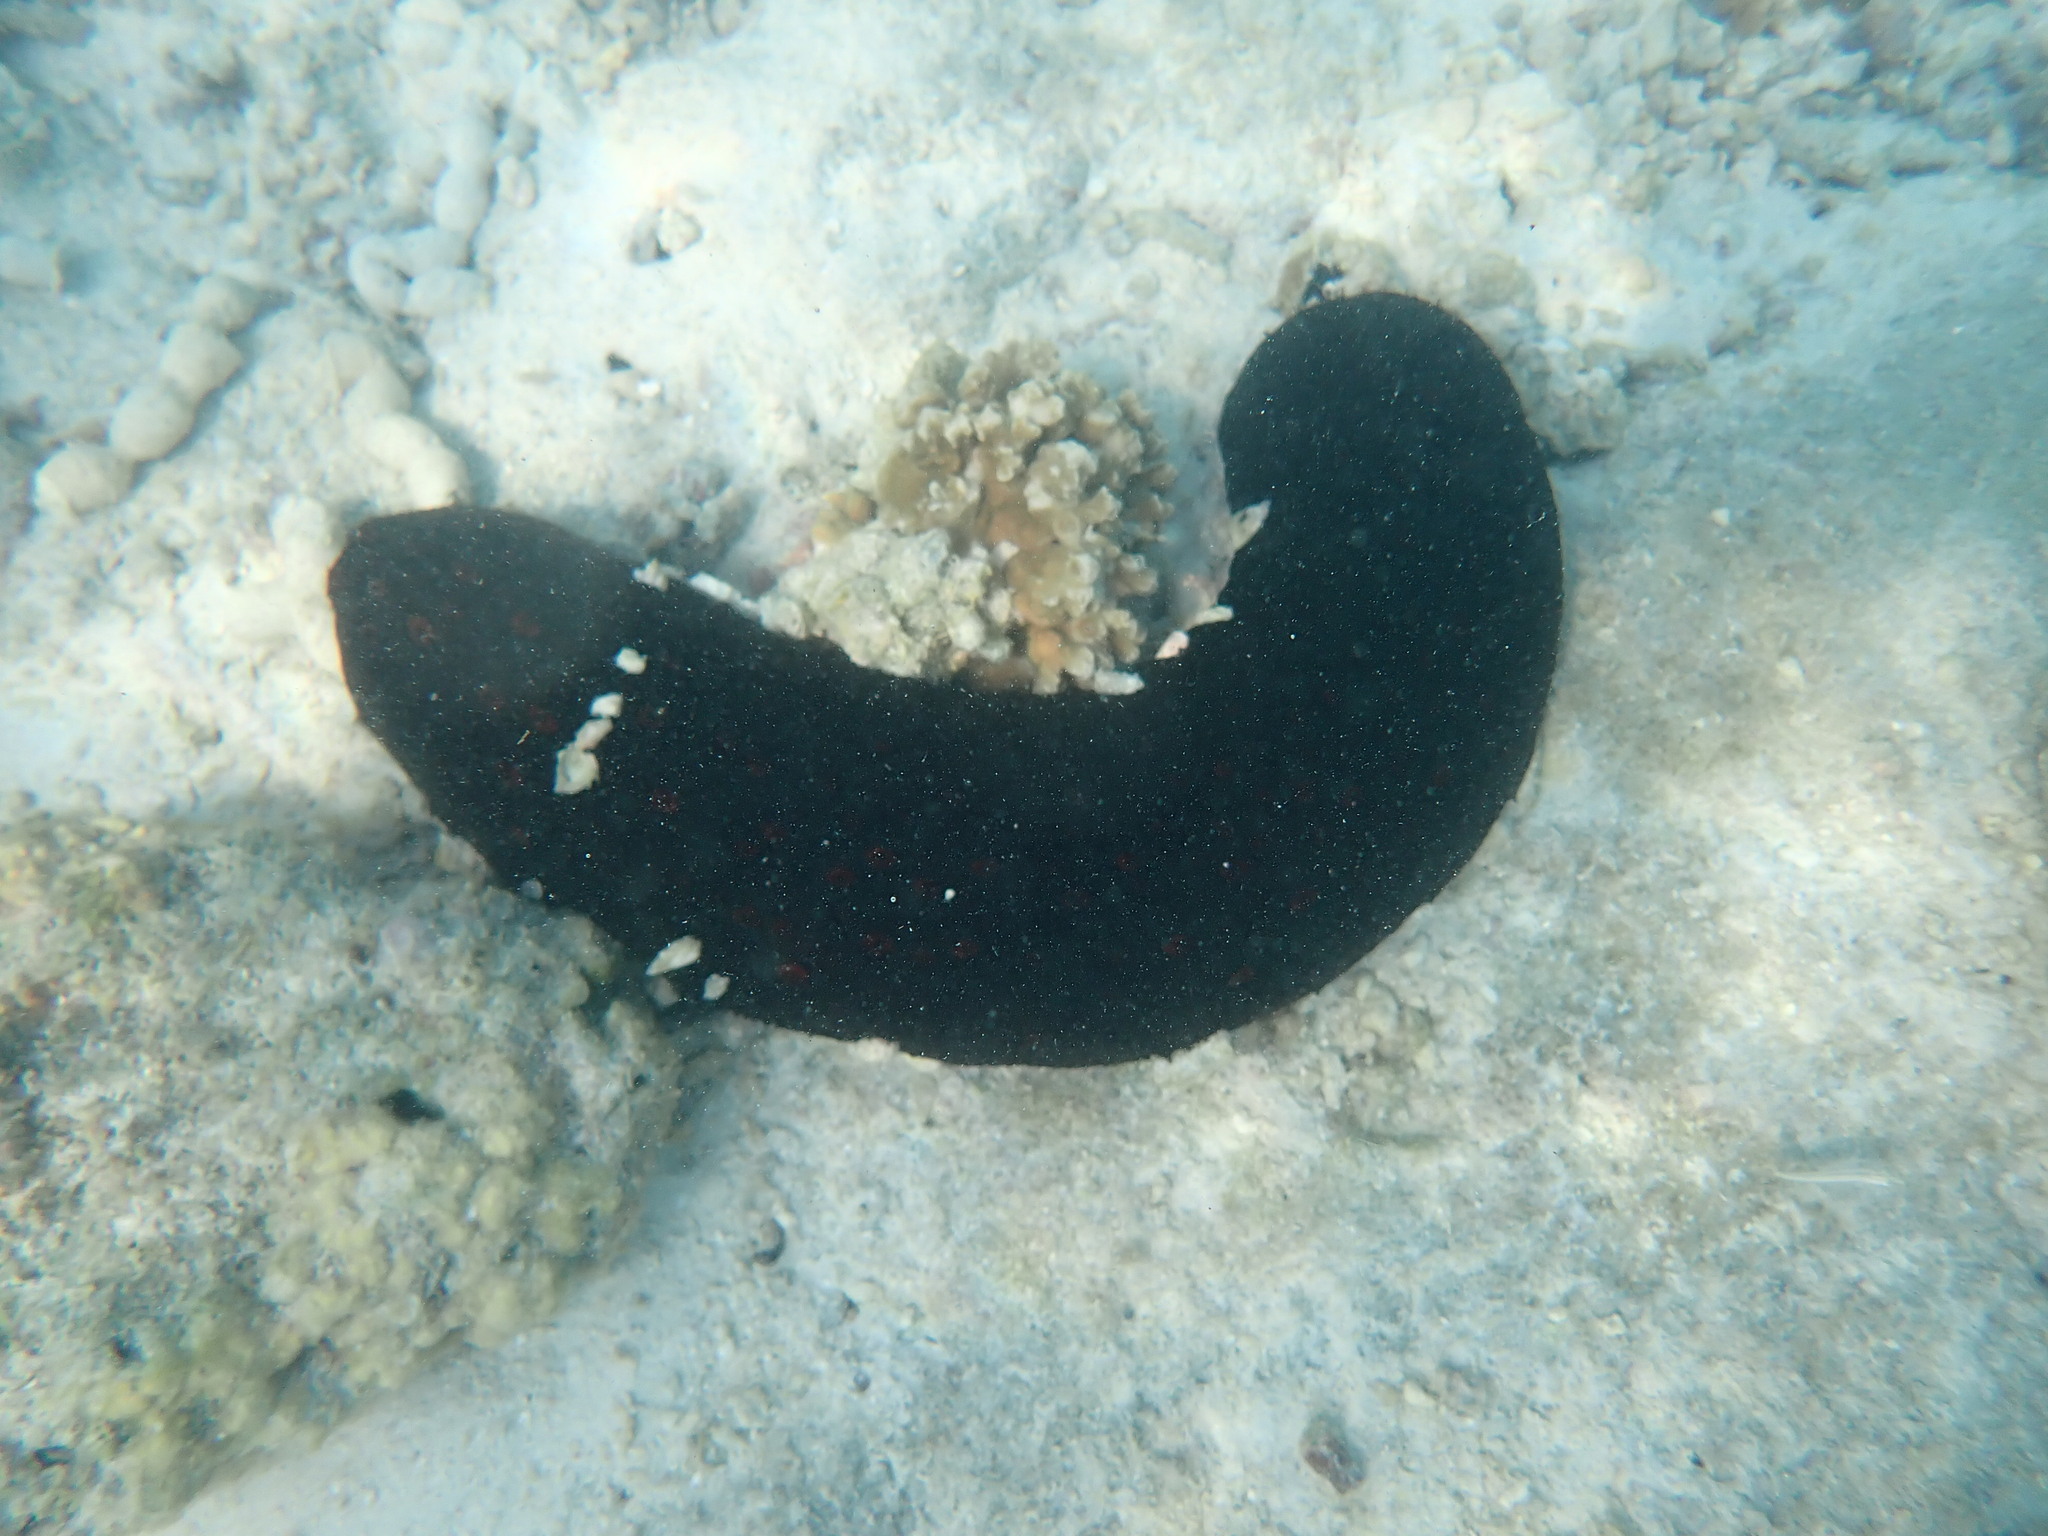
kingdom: Animalia
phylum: Echinodermata
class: Holothuroidea
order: Holothuriida
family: Holothuriidae
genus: Bohadschia
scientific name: Bohadschia atra
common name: Tigerfish
